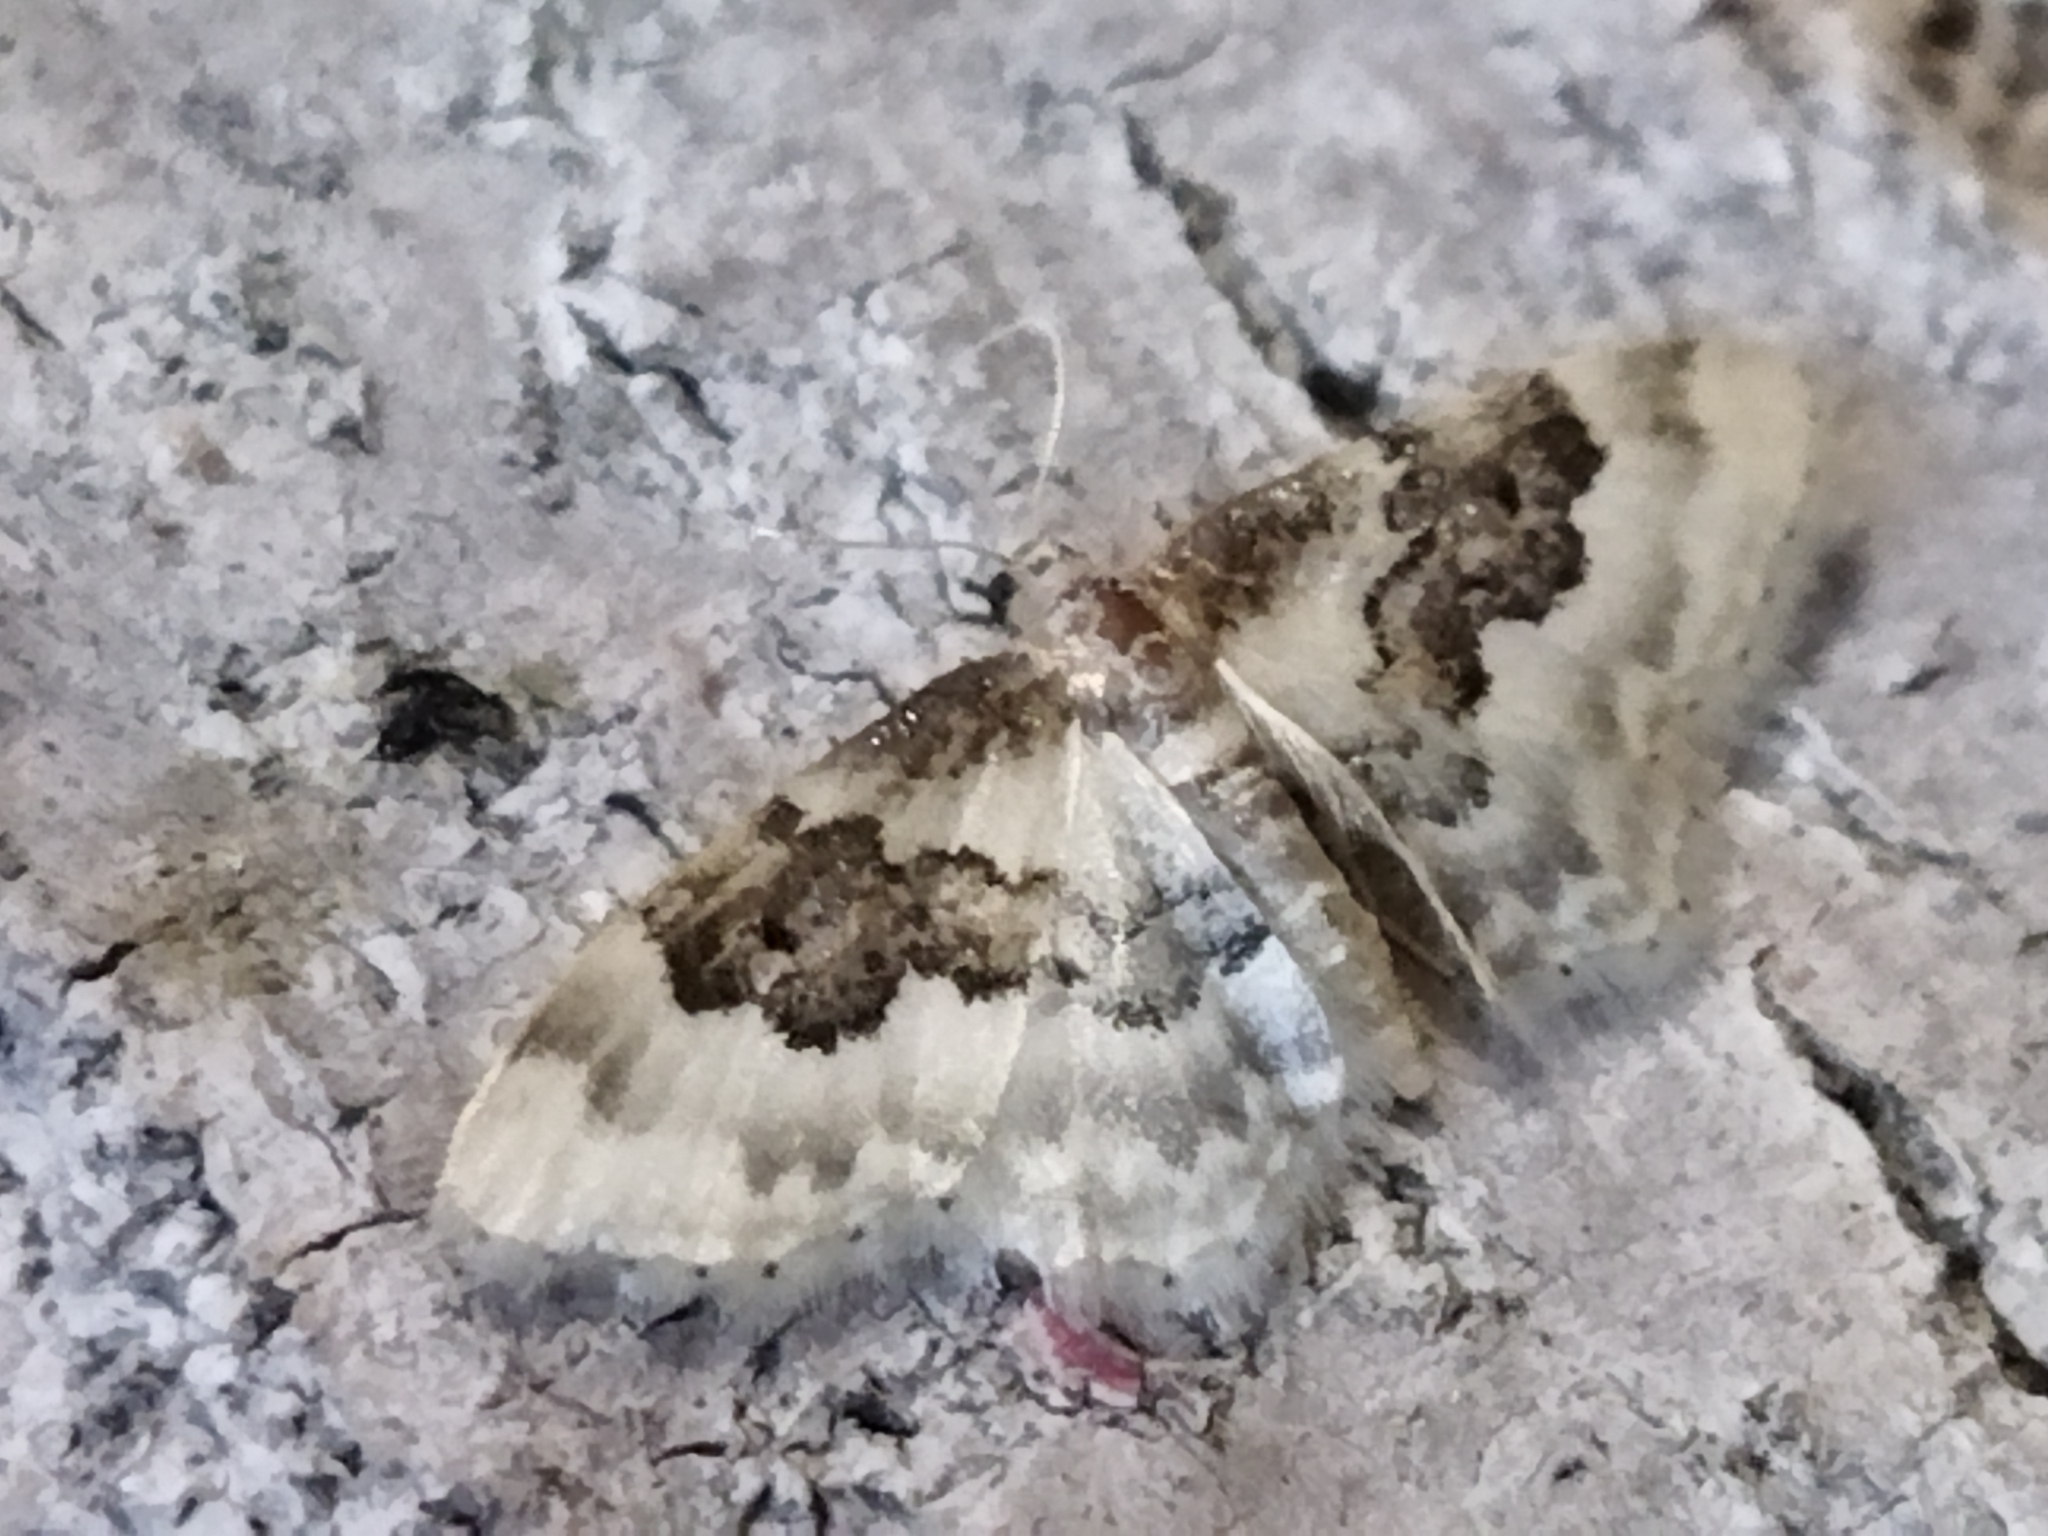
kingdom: Animalia
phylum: Arthropoda
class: Insecta
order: Lepidoptera
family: Geometridae
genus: Idaea
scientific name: Idaea rusticata
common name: Least carpet
